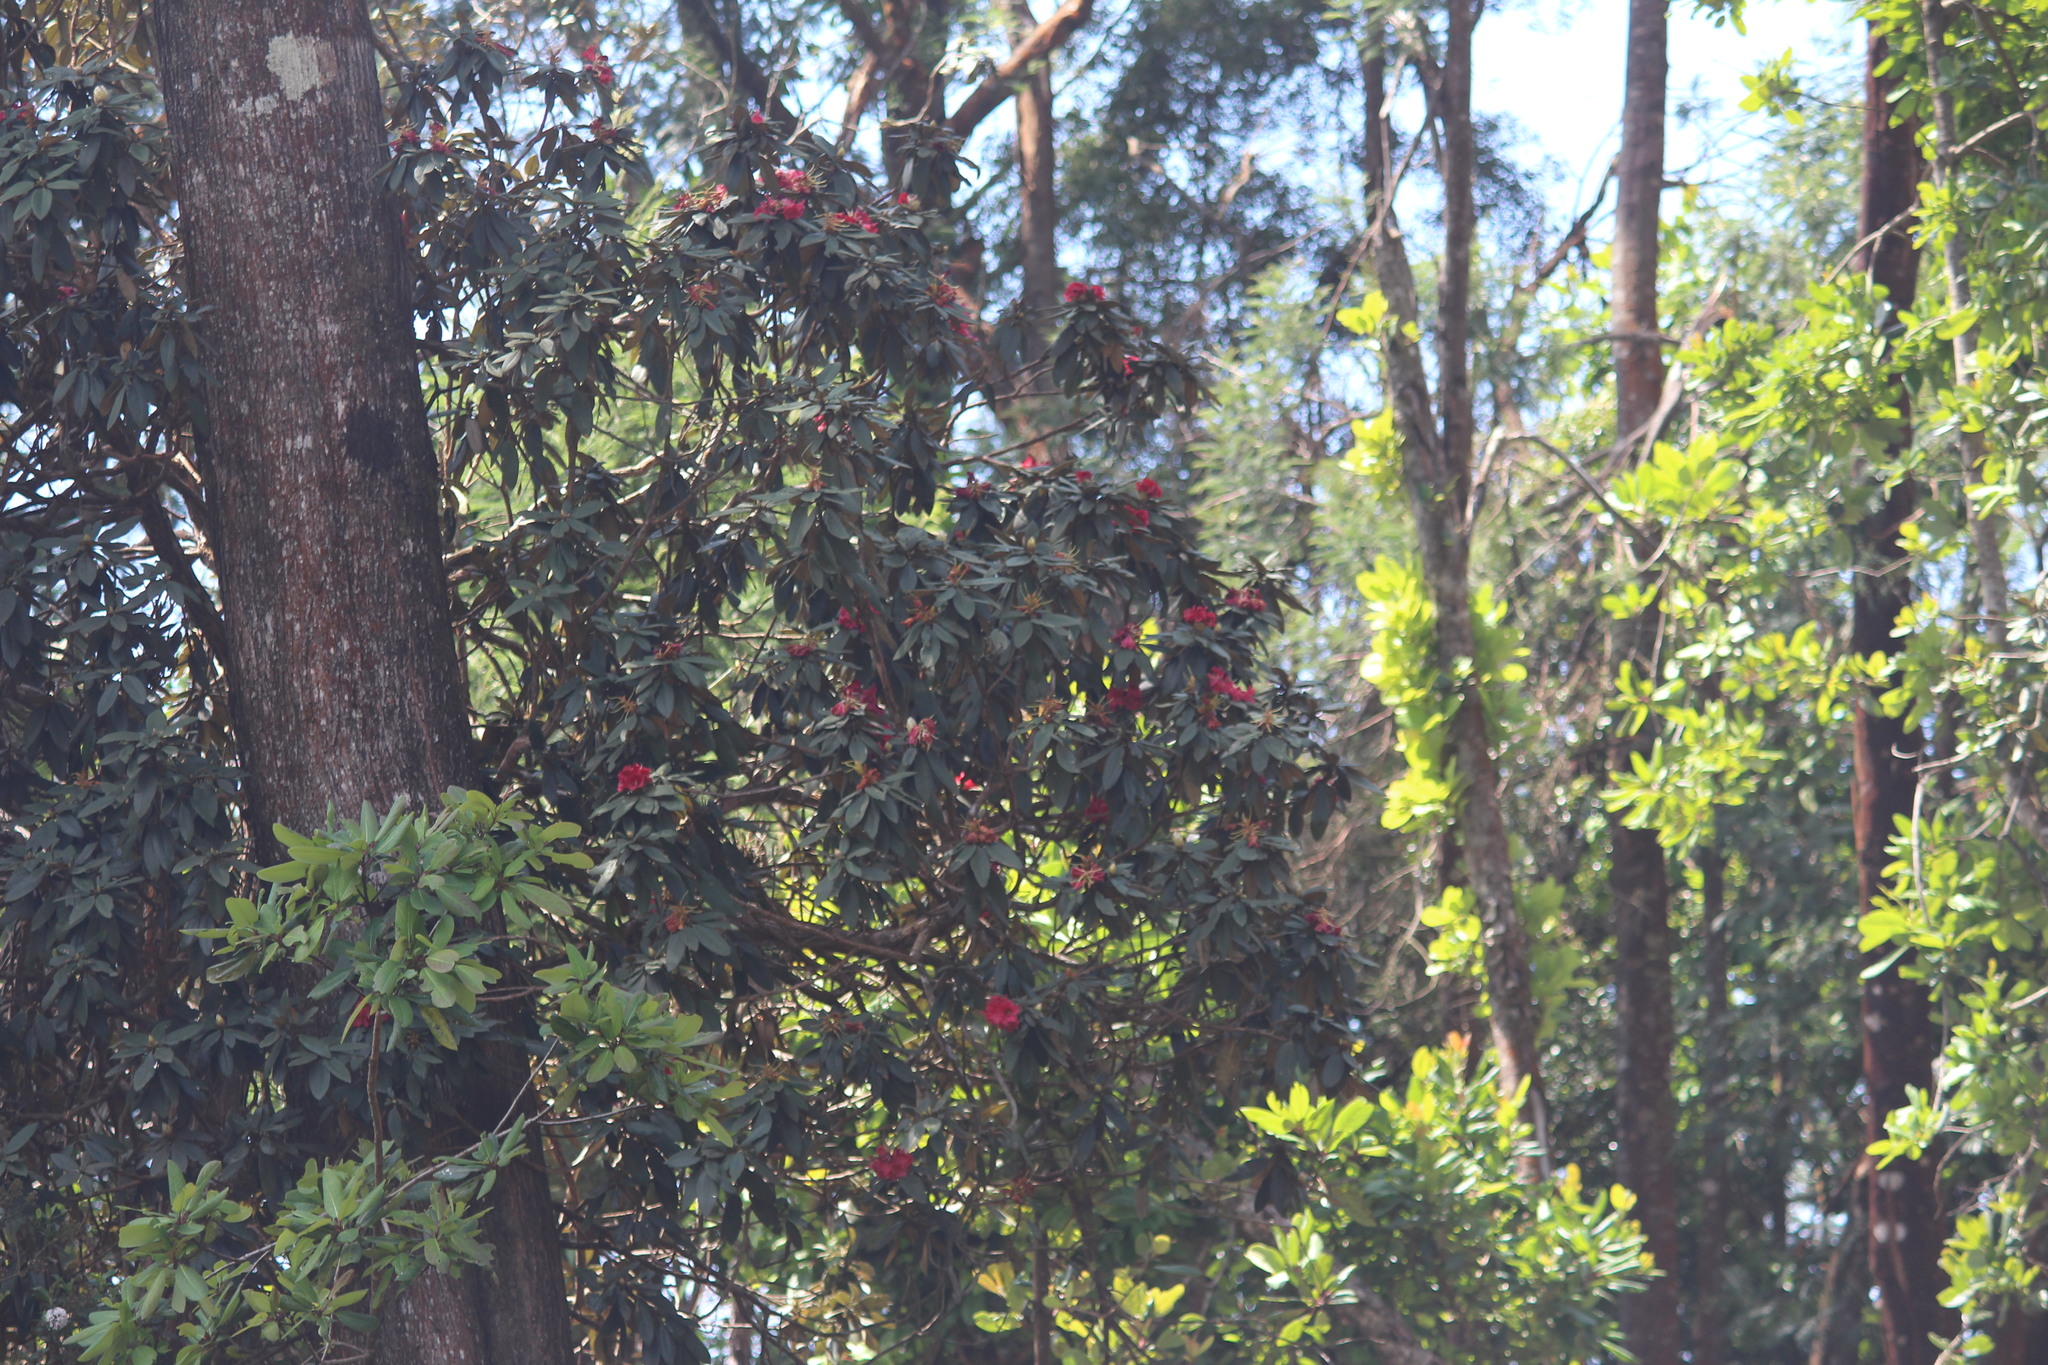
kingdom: Plantae
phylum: Tracheophyta
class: Magnoliopsida
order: Ericales
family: Ericaceae
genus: Rhododendron
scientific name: Rhododendron arboreum
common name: Tree rhododendron
